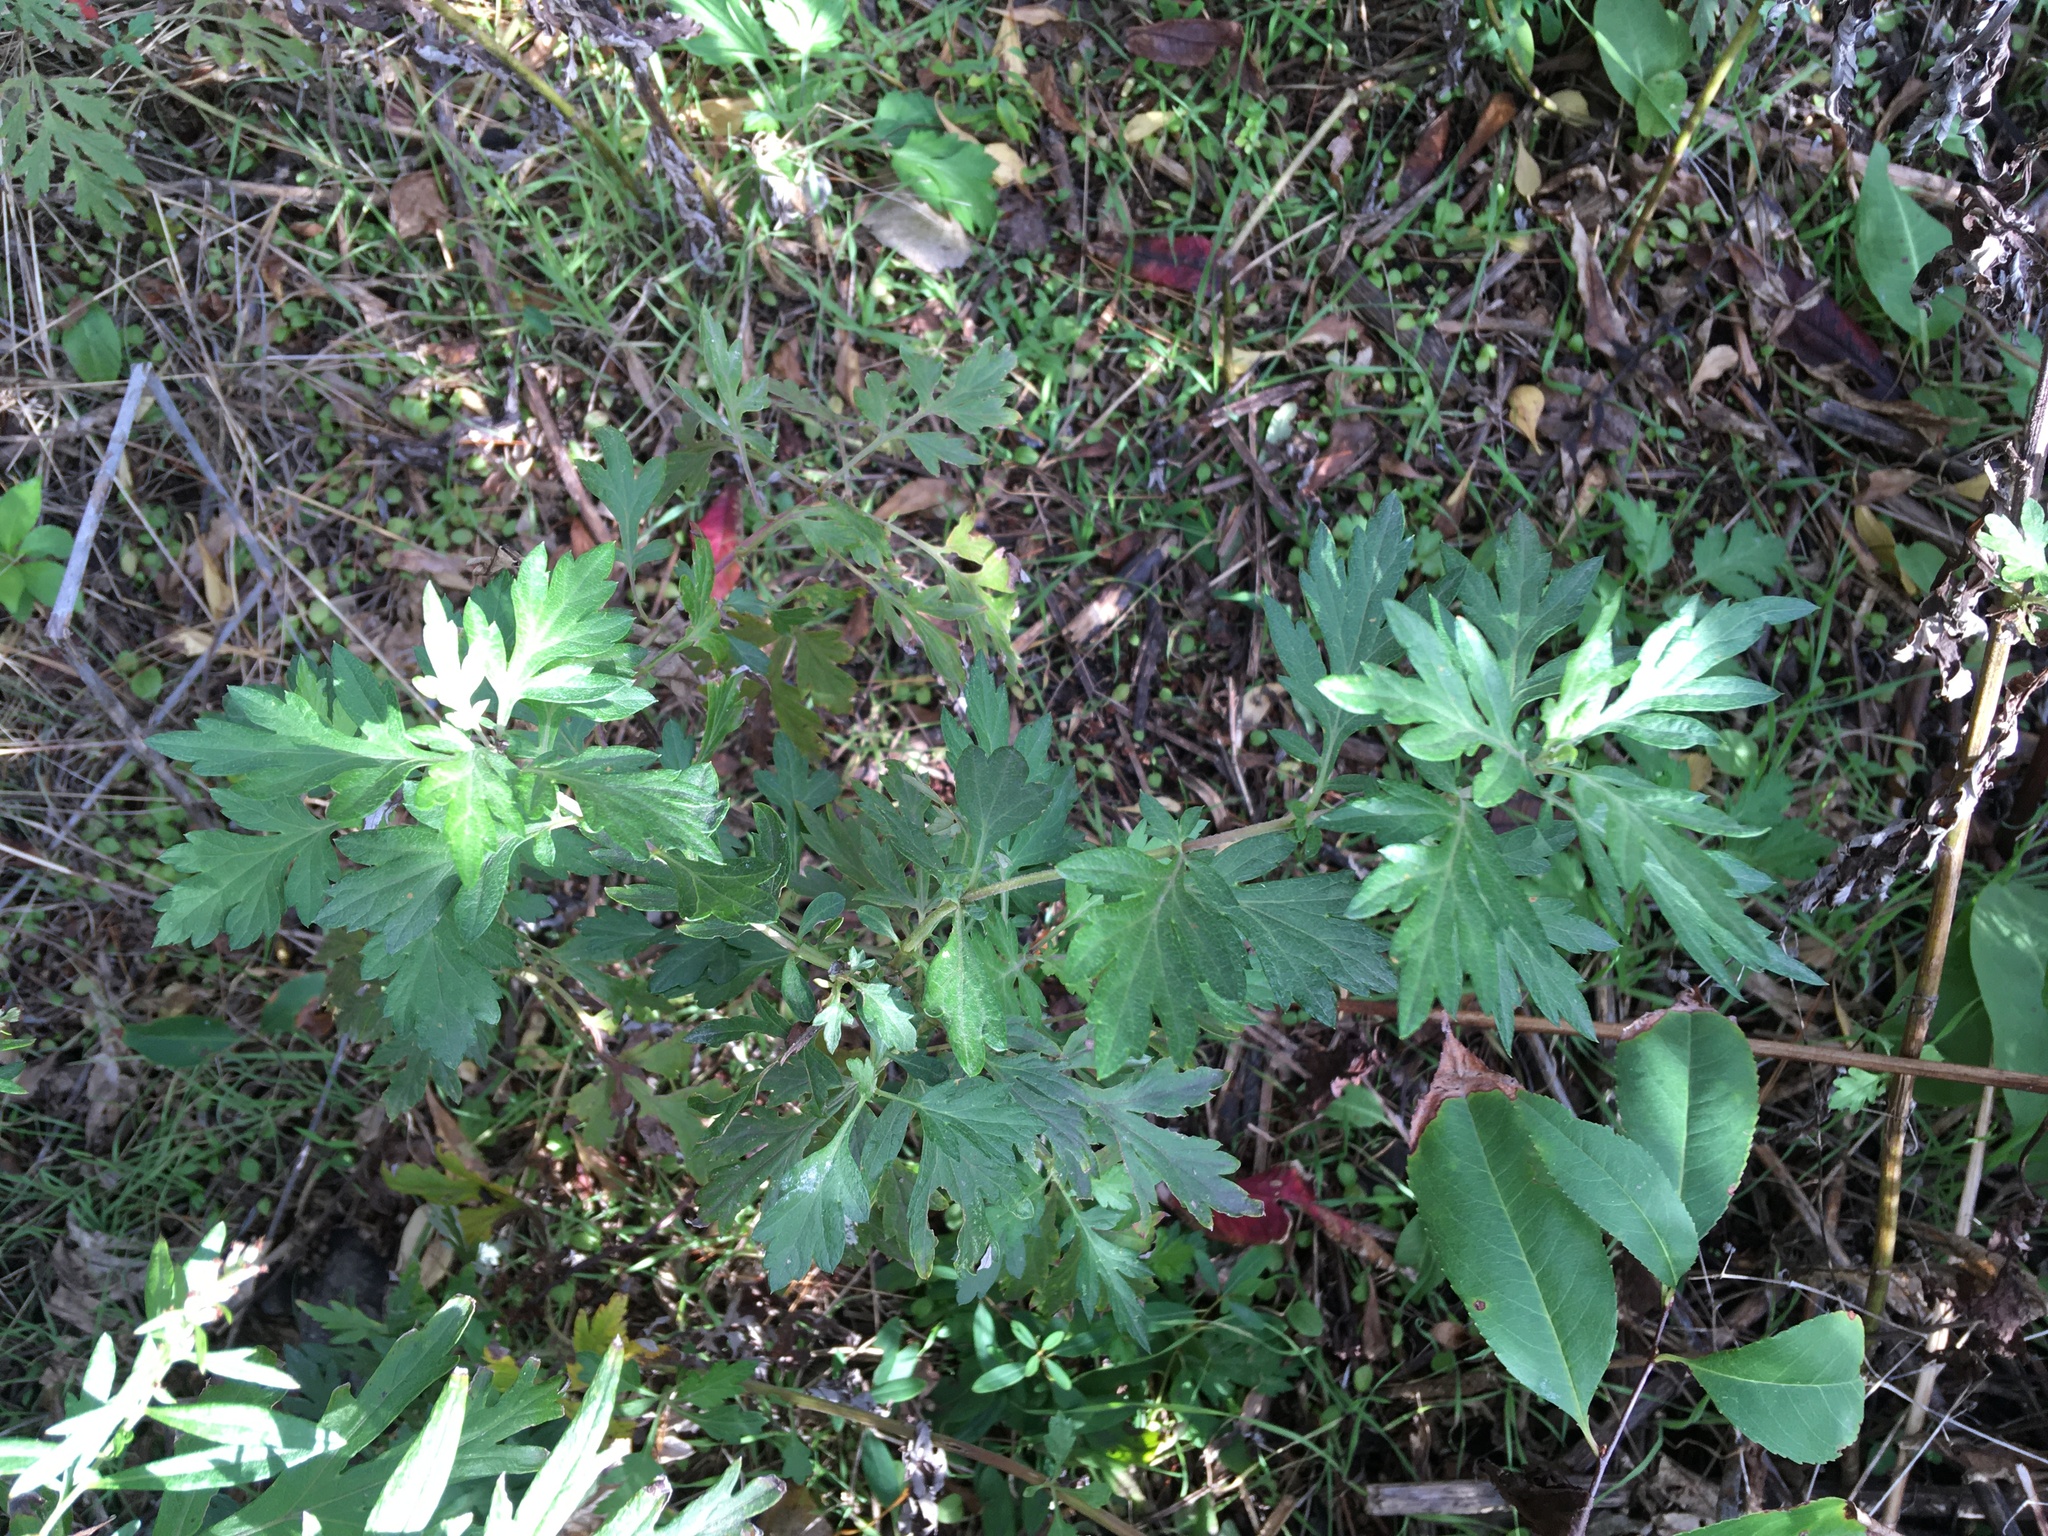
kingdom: Plantae
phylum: Tracheophyta
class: Magnoliopsida
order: Asterales
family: Asteraceae
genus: Artemisia
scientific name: Artemisia vulgaris
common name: Mugwort
